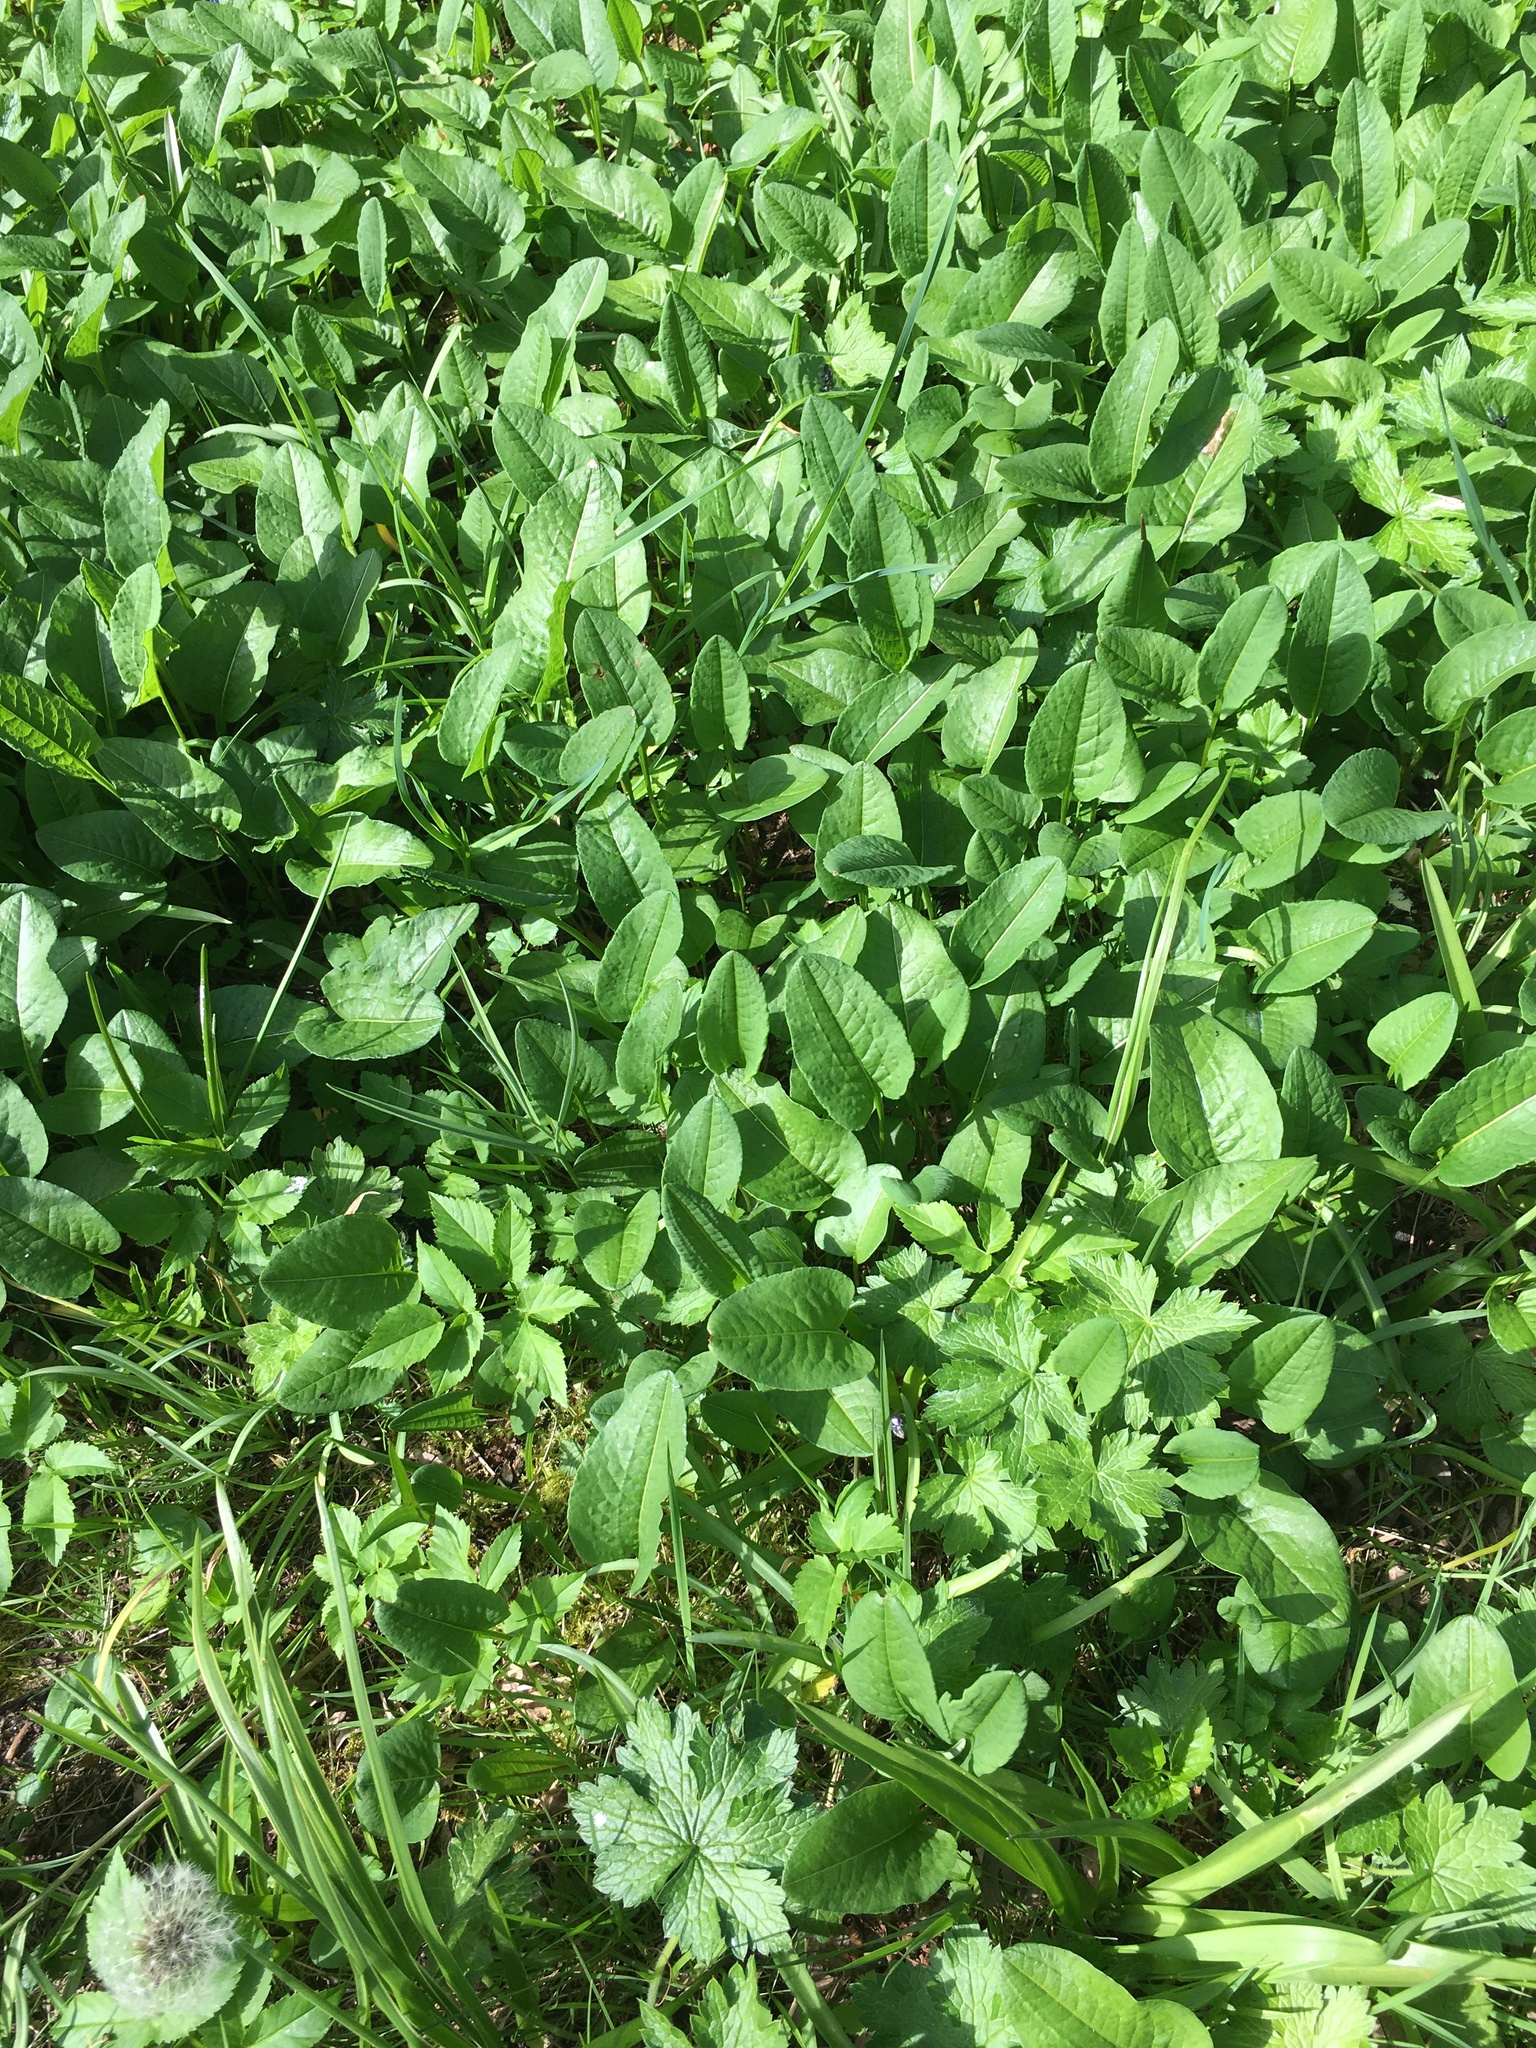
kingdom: Plantae
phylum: Tracheophyta
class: Magnoliopsida
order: Caryophyllales
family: Polygonaceae
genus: Bistorta
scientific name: Bistorta officinalis
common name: Common bistort
